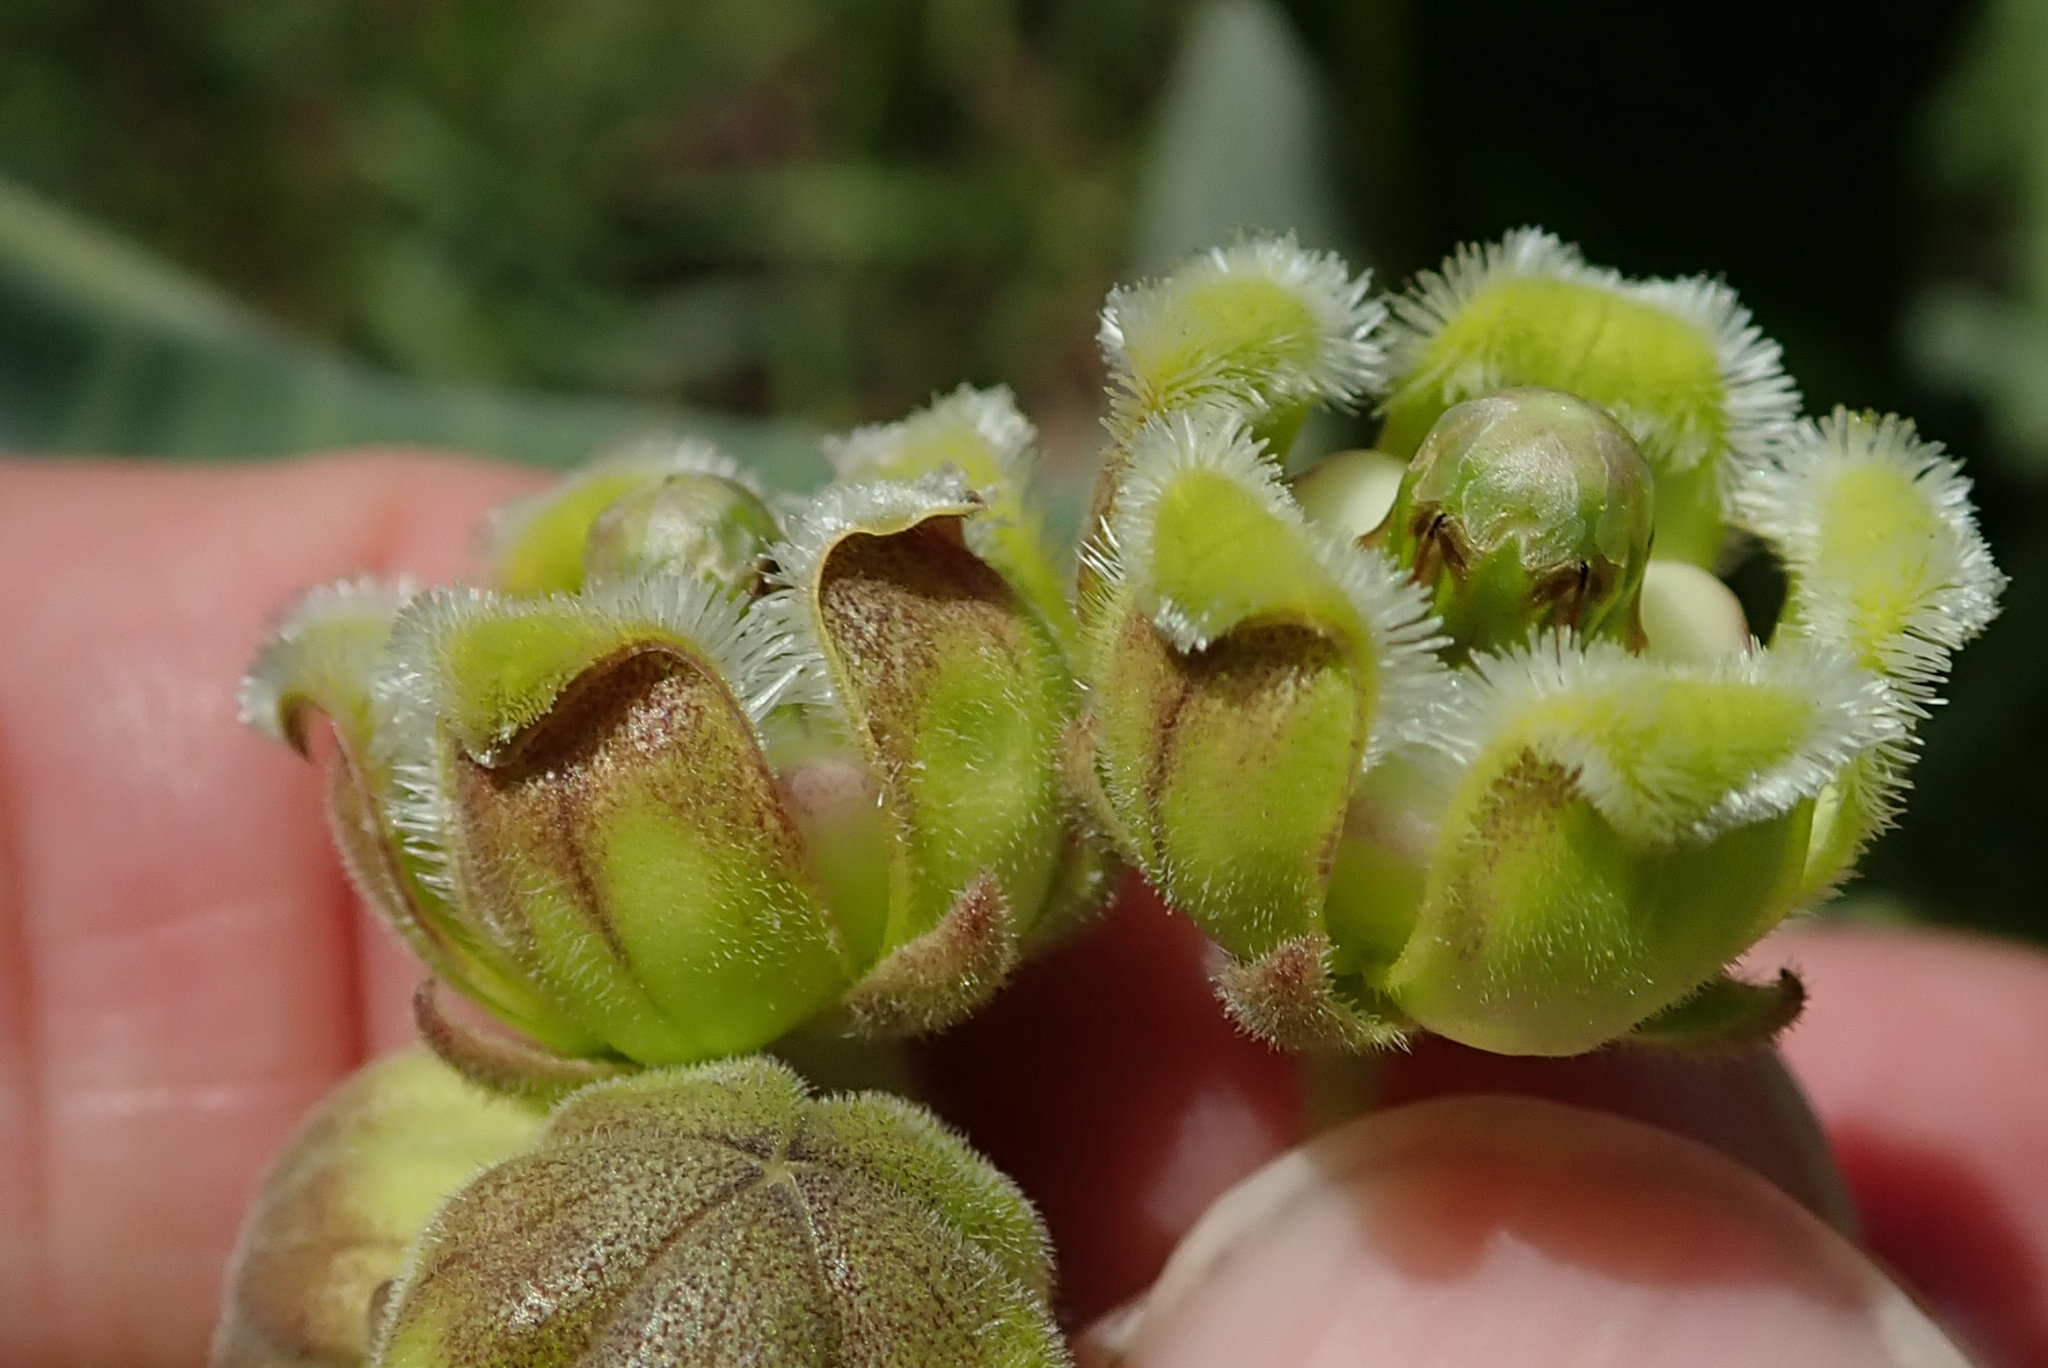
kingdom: Plantae
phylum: Tracheophyta
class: Magnoliopsida
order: Gentianales
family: Apocynaceae
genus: Xysmalobium
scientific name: Xysmalobium undulatum
